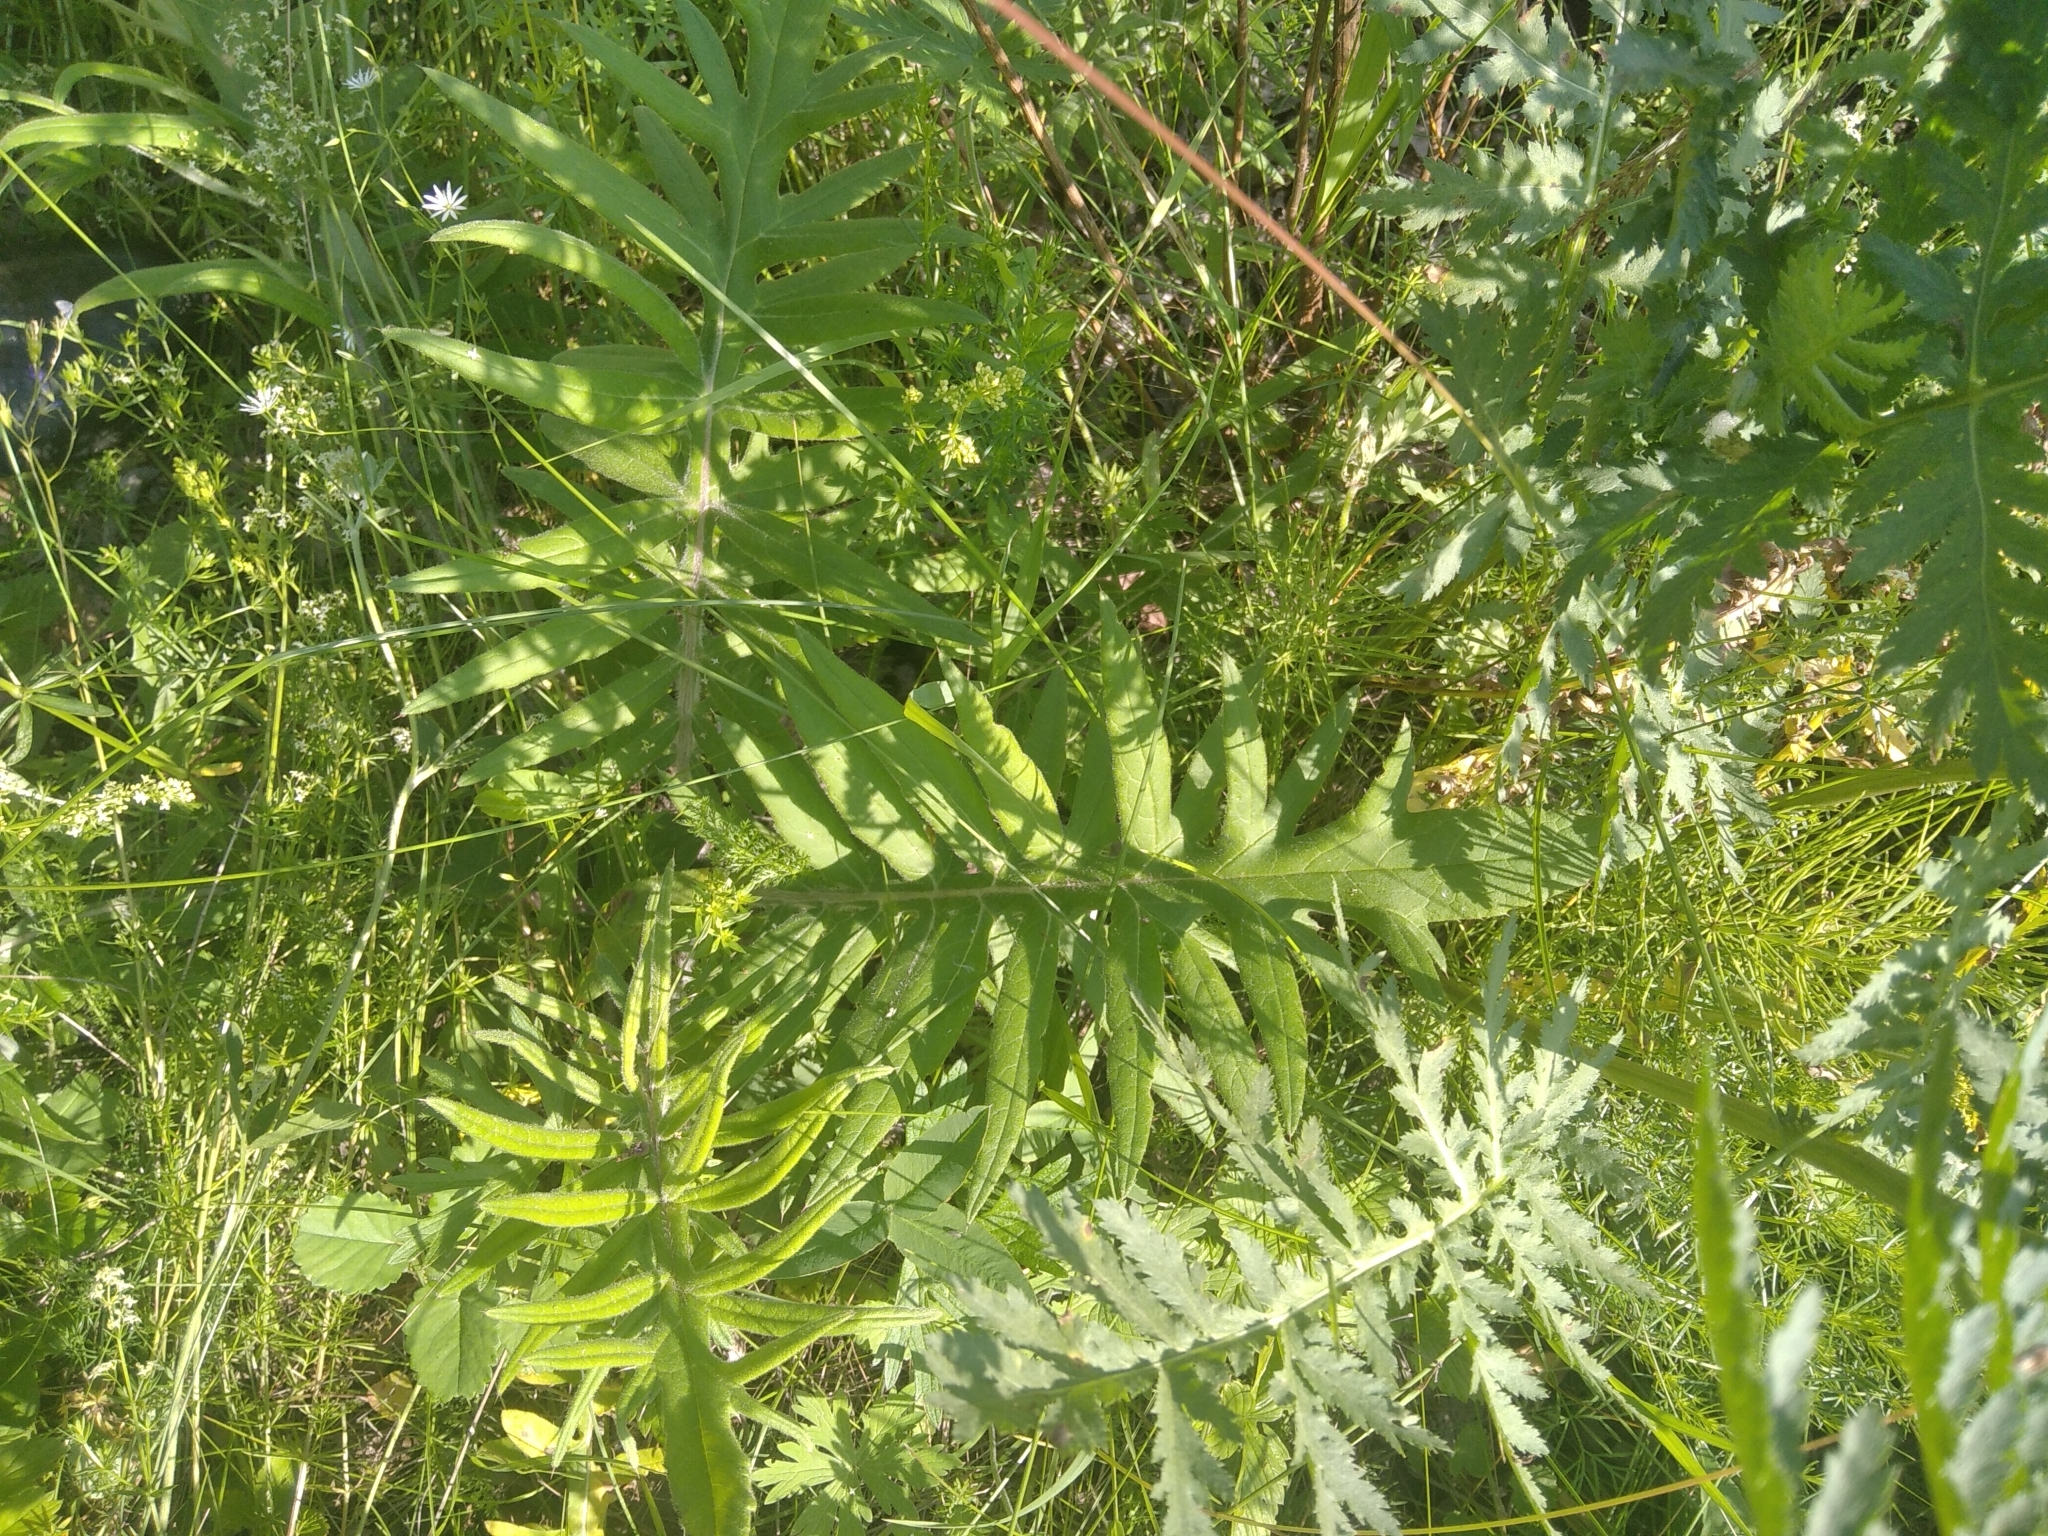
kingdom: Plantae
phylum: Tracheophyta
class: Magnoliopsida
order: Asterales
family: Asteraceae
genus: Lophiolepis
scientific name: Lophiolepis decussata
